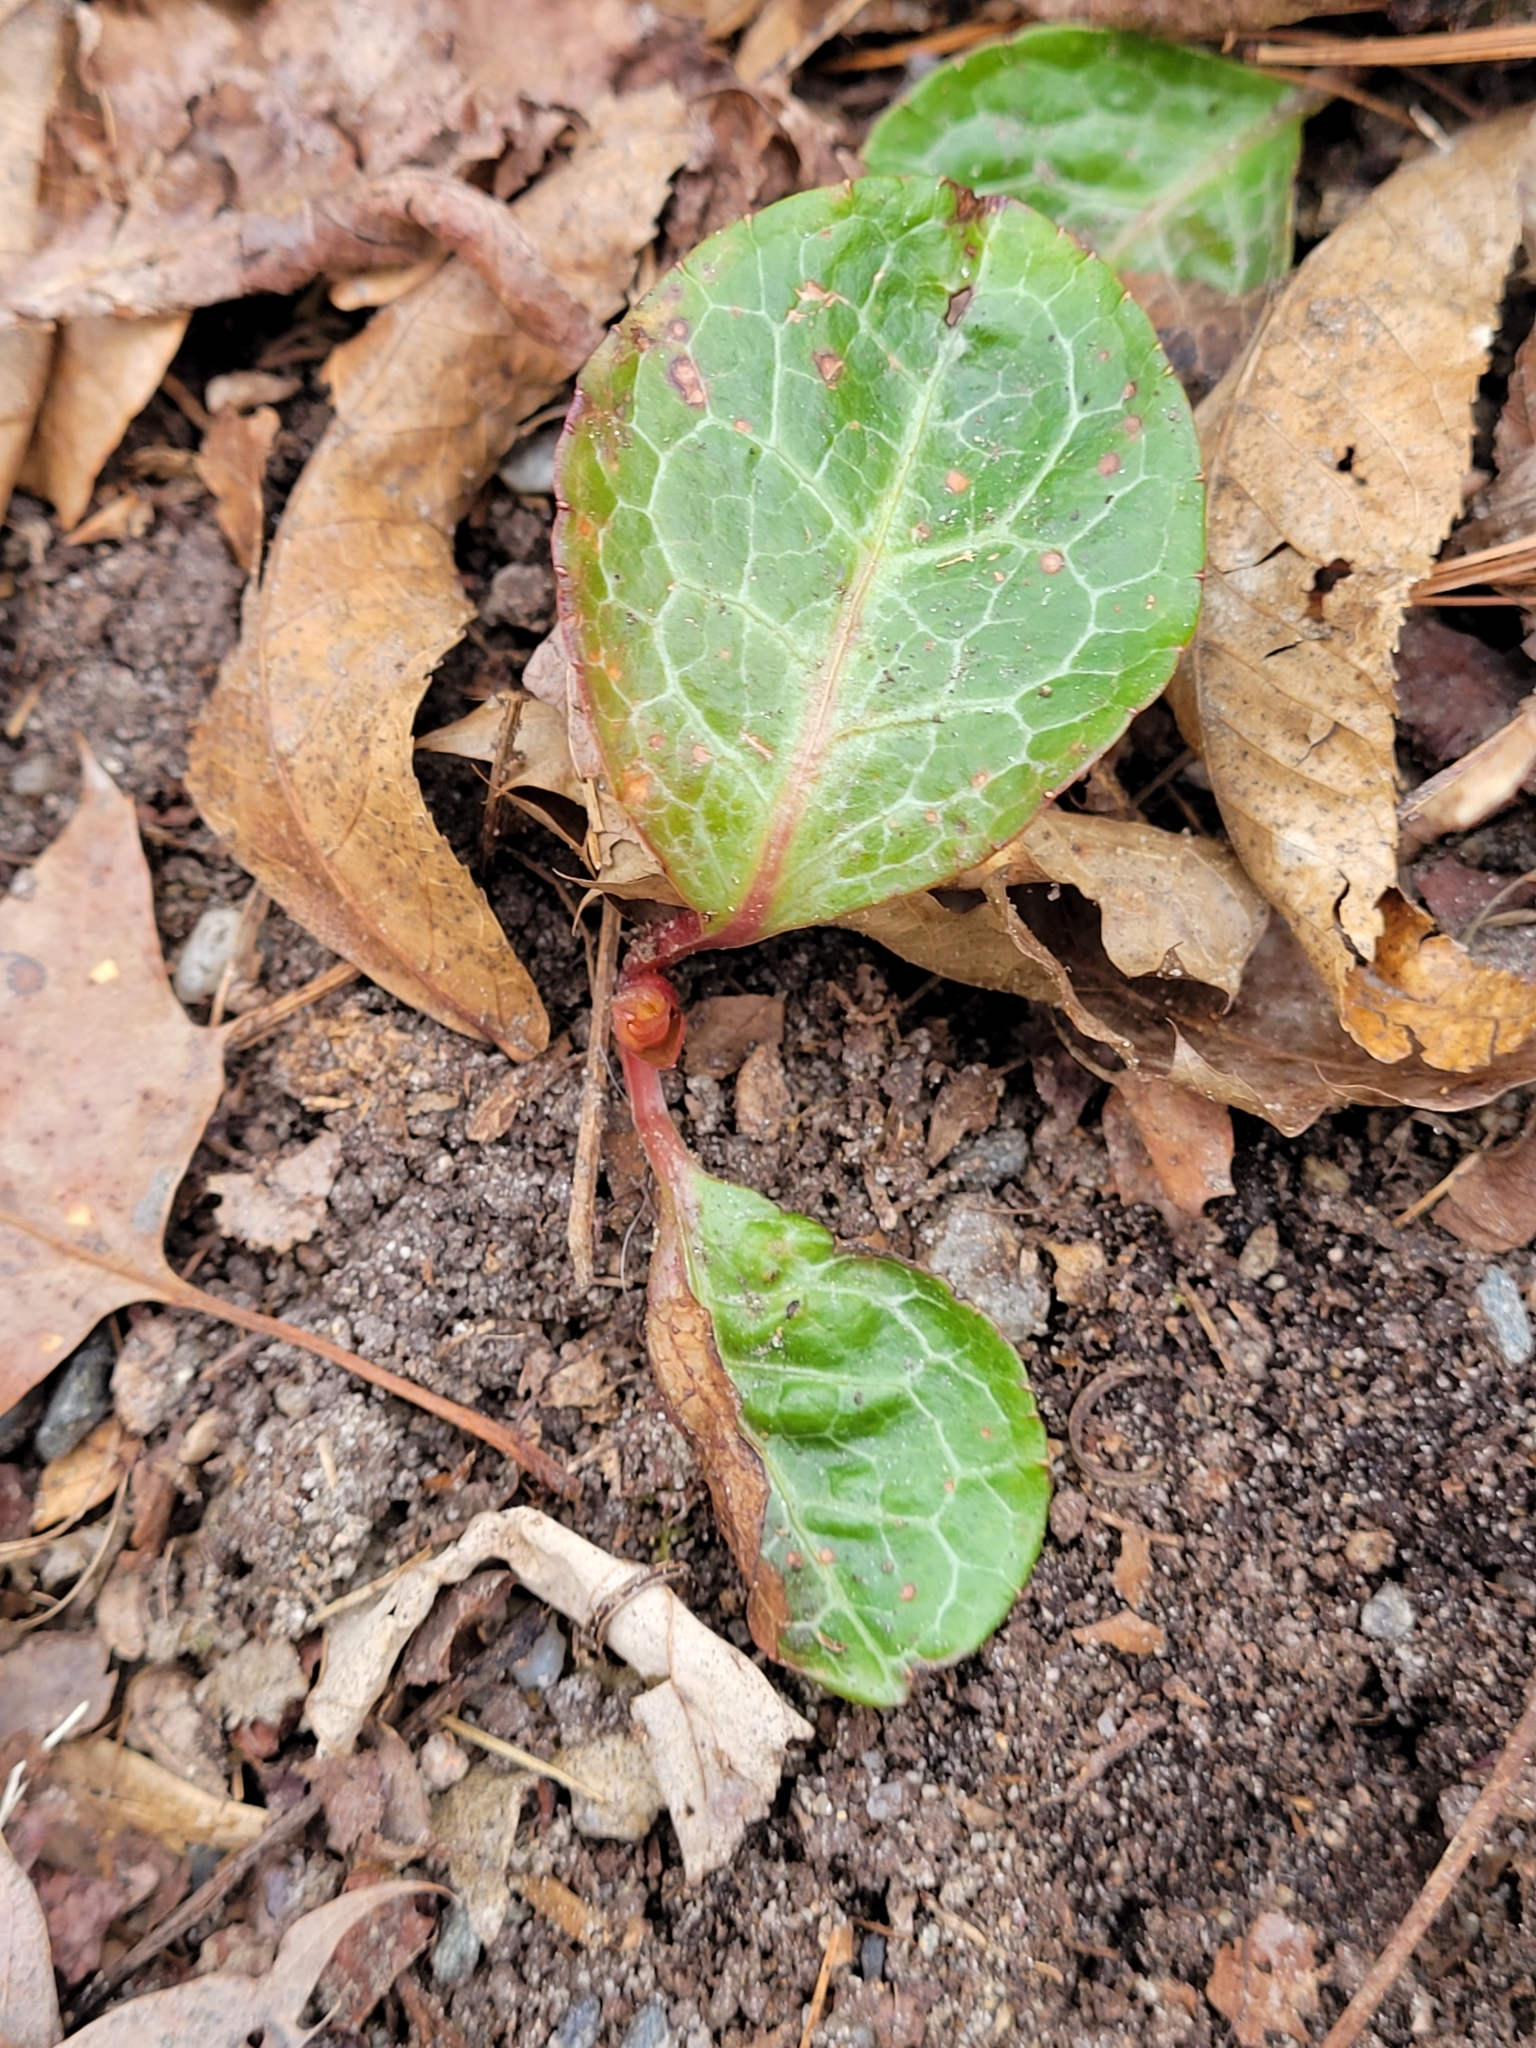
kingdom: Plantae
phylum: Tracheophyta
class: Magnoliopsida
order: Ericales
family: Ericaceae
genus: Pyrola
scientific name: Pyrola americana
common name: American wintergreen
